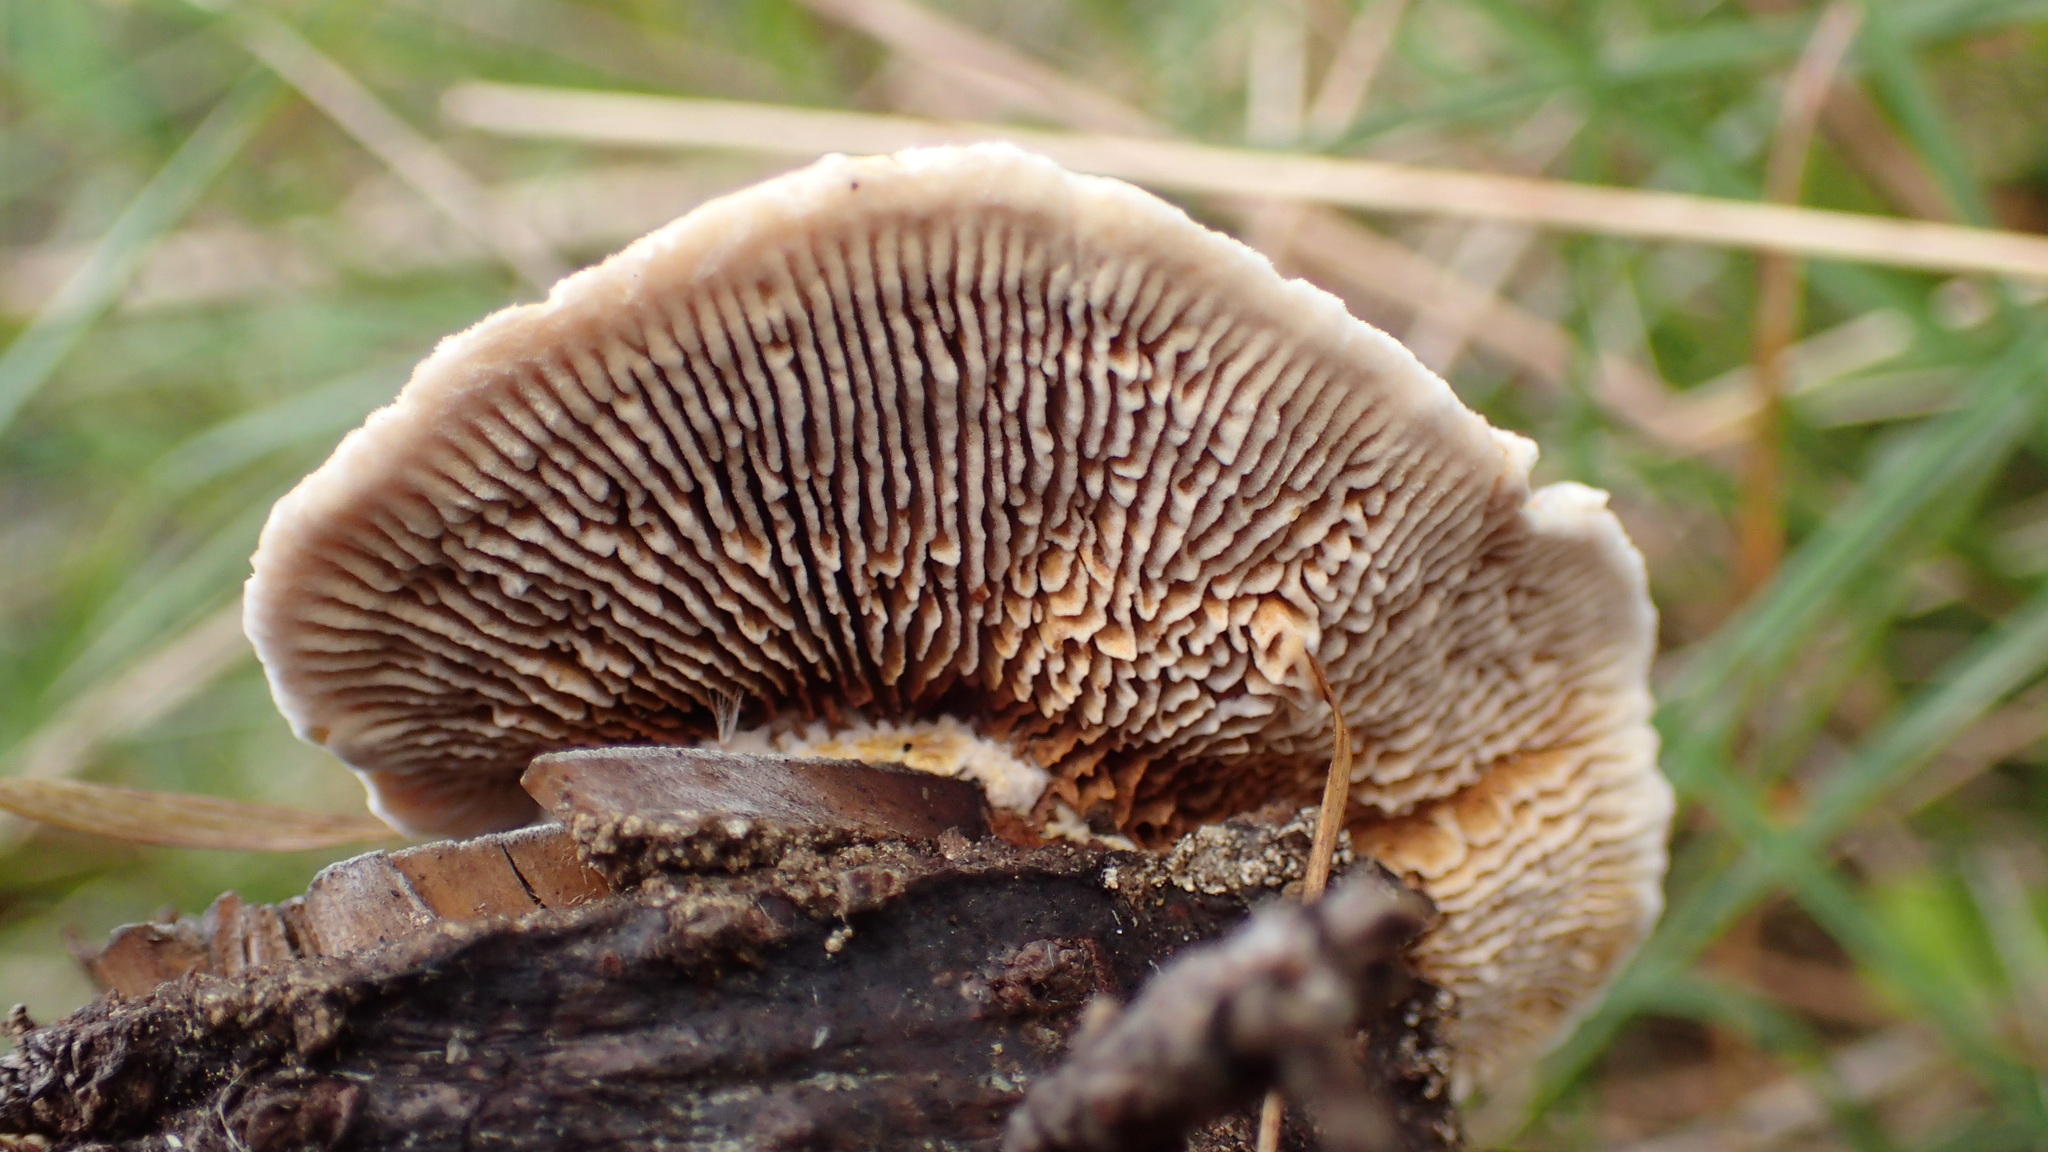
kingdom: Fungi
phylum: Basidiomycota
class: Agaricomycetes
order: Gloeophyllales
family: Gloeophyllaceae
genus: Gloeophyllum
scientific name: Gloeophyllum sepiarium
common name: Conifer mazegill
